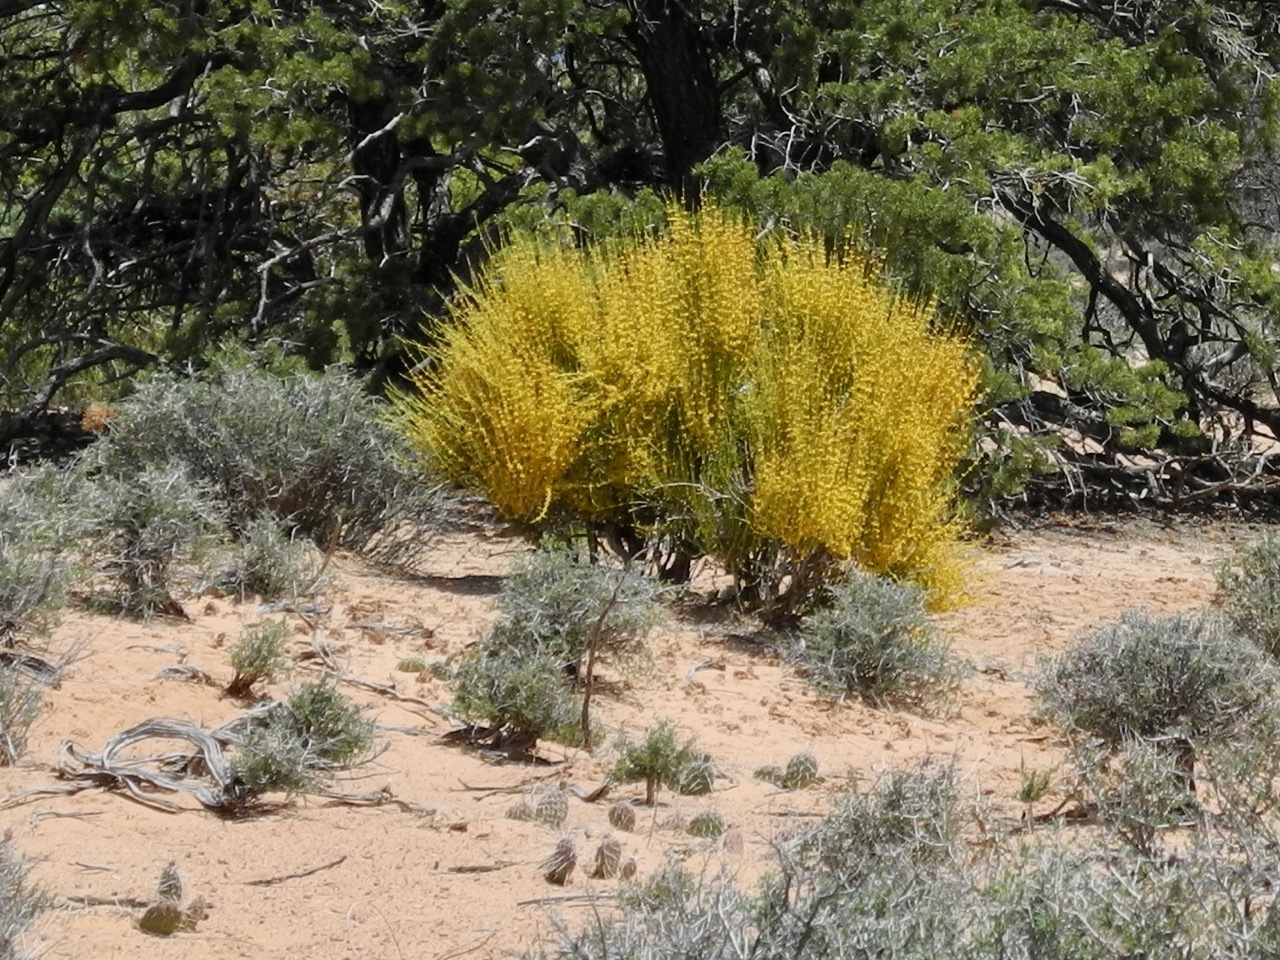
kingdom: Plantae
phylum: Tracheophyta
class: Gnetopsida
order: Ephedrales
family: Ephedraceae
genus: Ephedra
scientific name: Ephedra viridis
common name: Green ephedra
